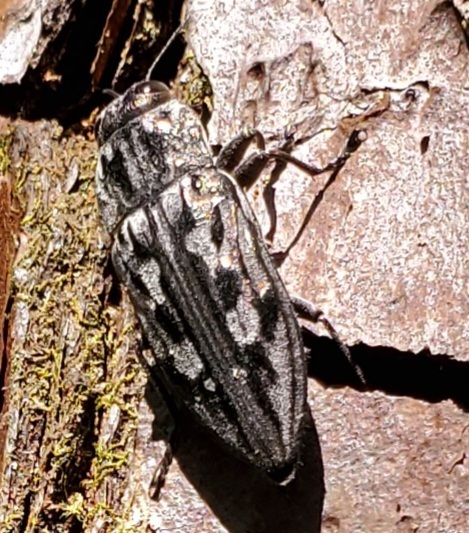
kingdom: Animalia
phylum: Arthropoda
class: Insecta
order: Coleoptera
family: Buprestidae
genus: Chalcophora
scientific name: Chalcophora virginiensis
